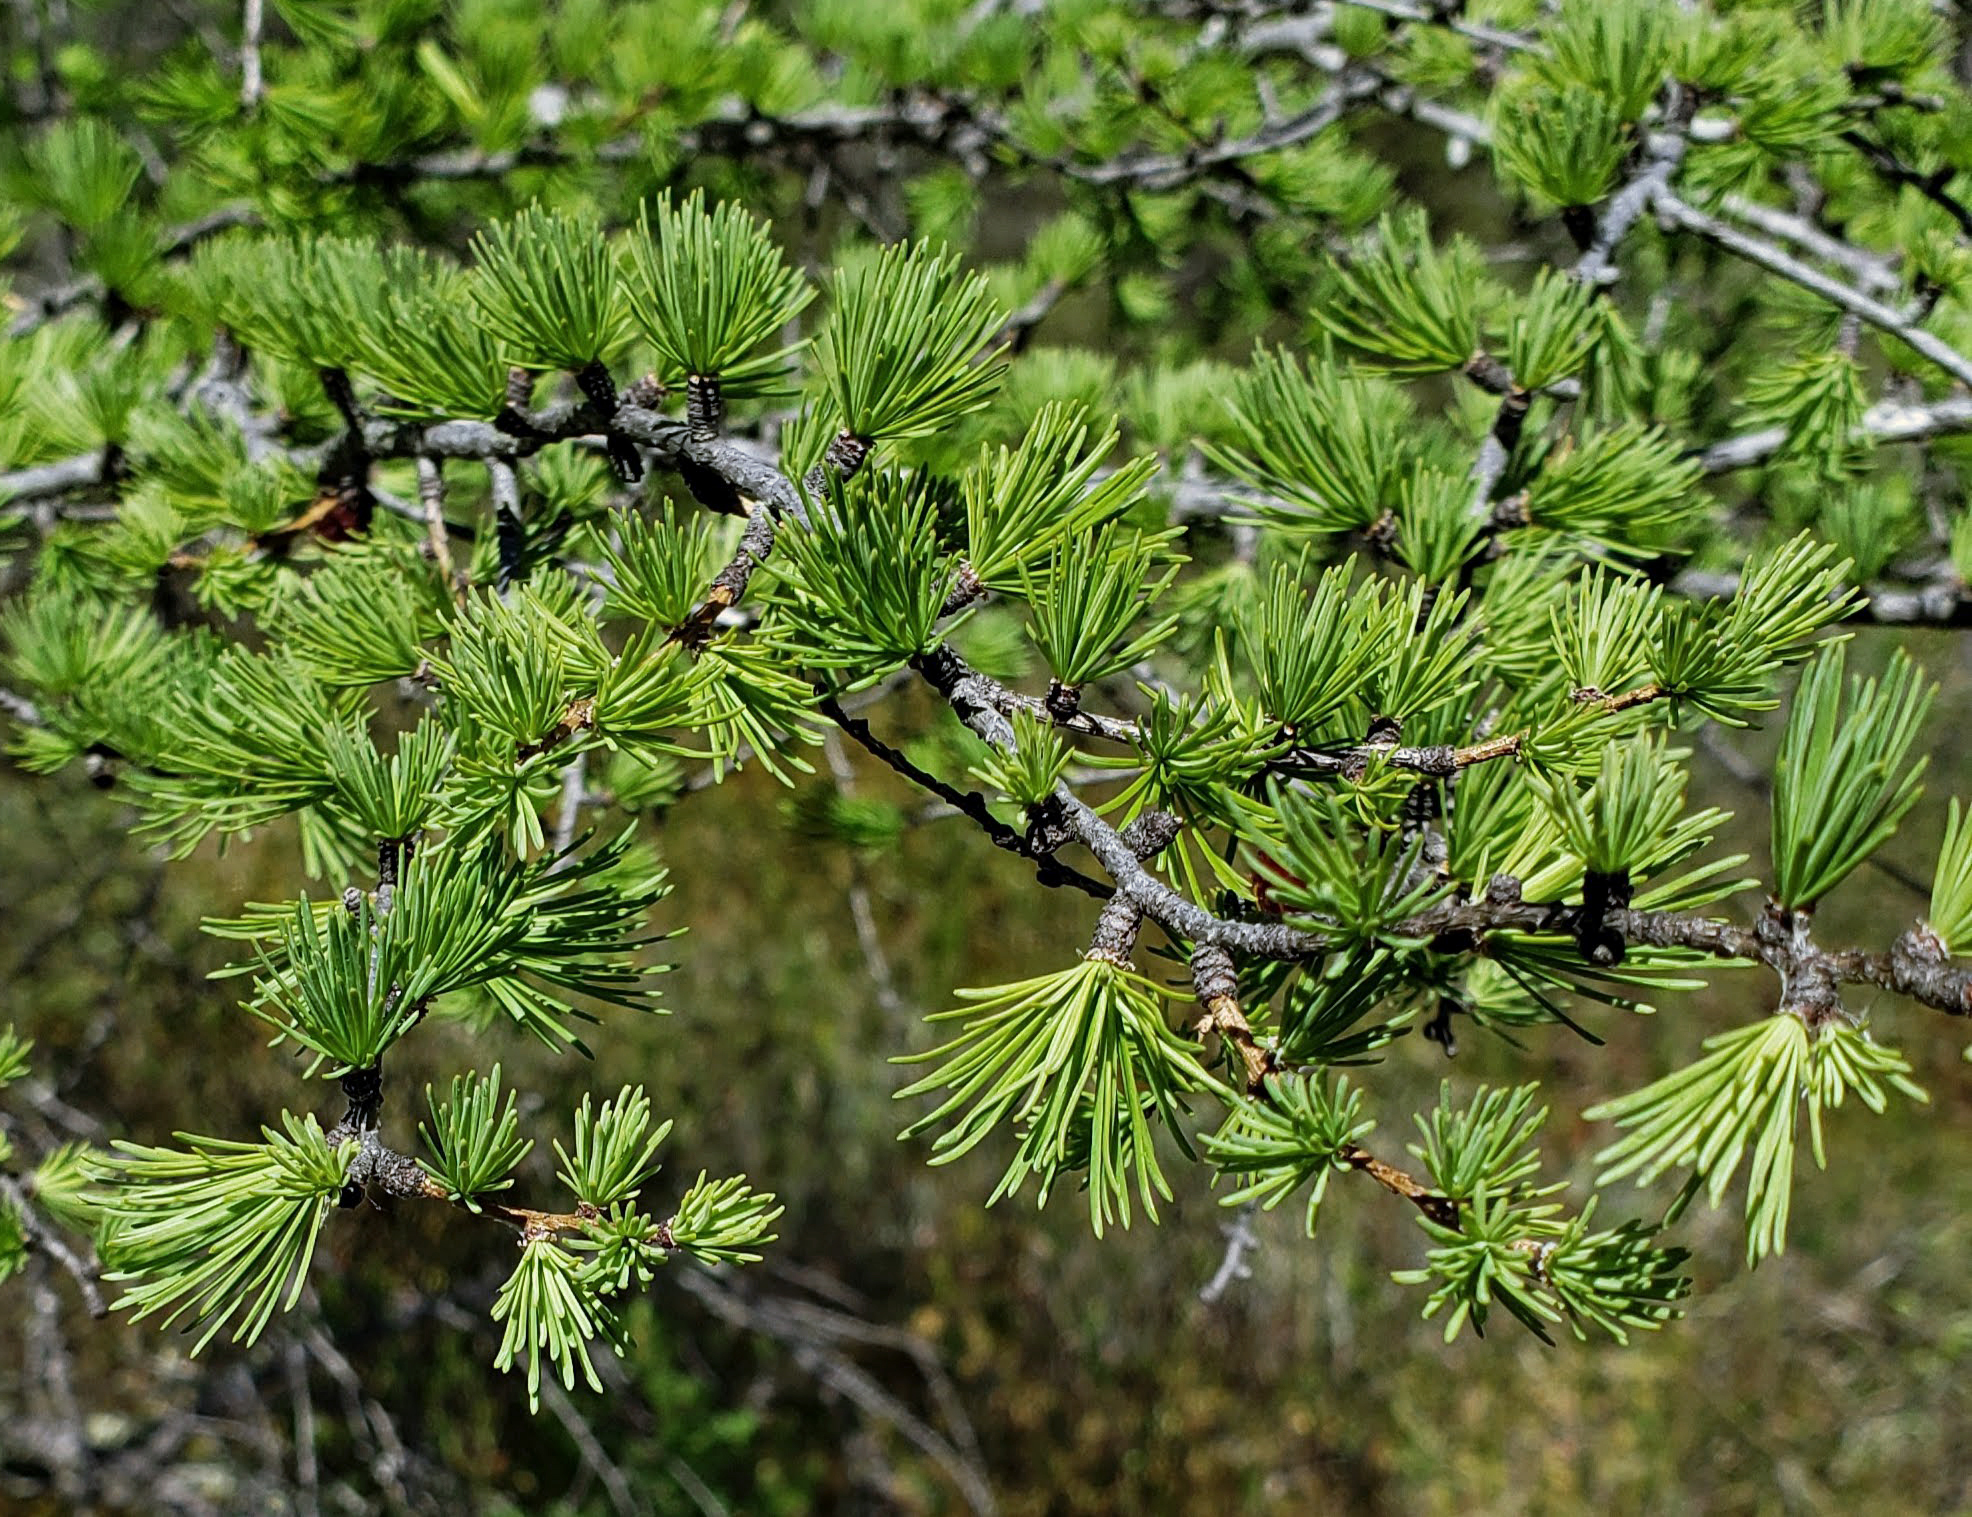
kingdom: Plantae
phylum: Tracheophyta
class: Pinopsida
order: Pinales
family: Pinaceae
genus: Larix
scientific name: Larix laricina
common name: American larch
